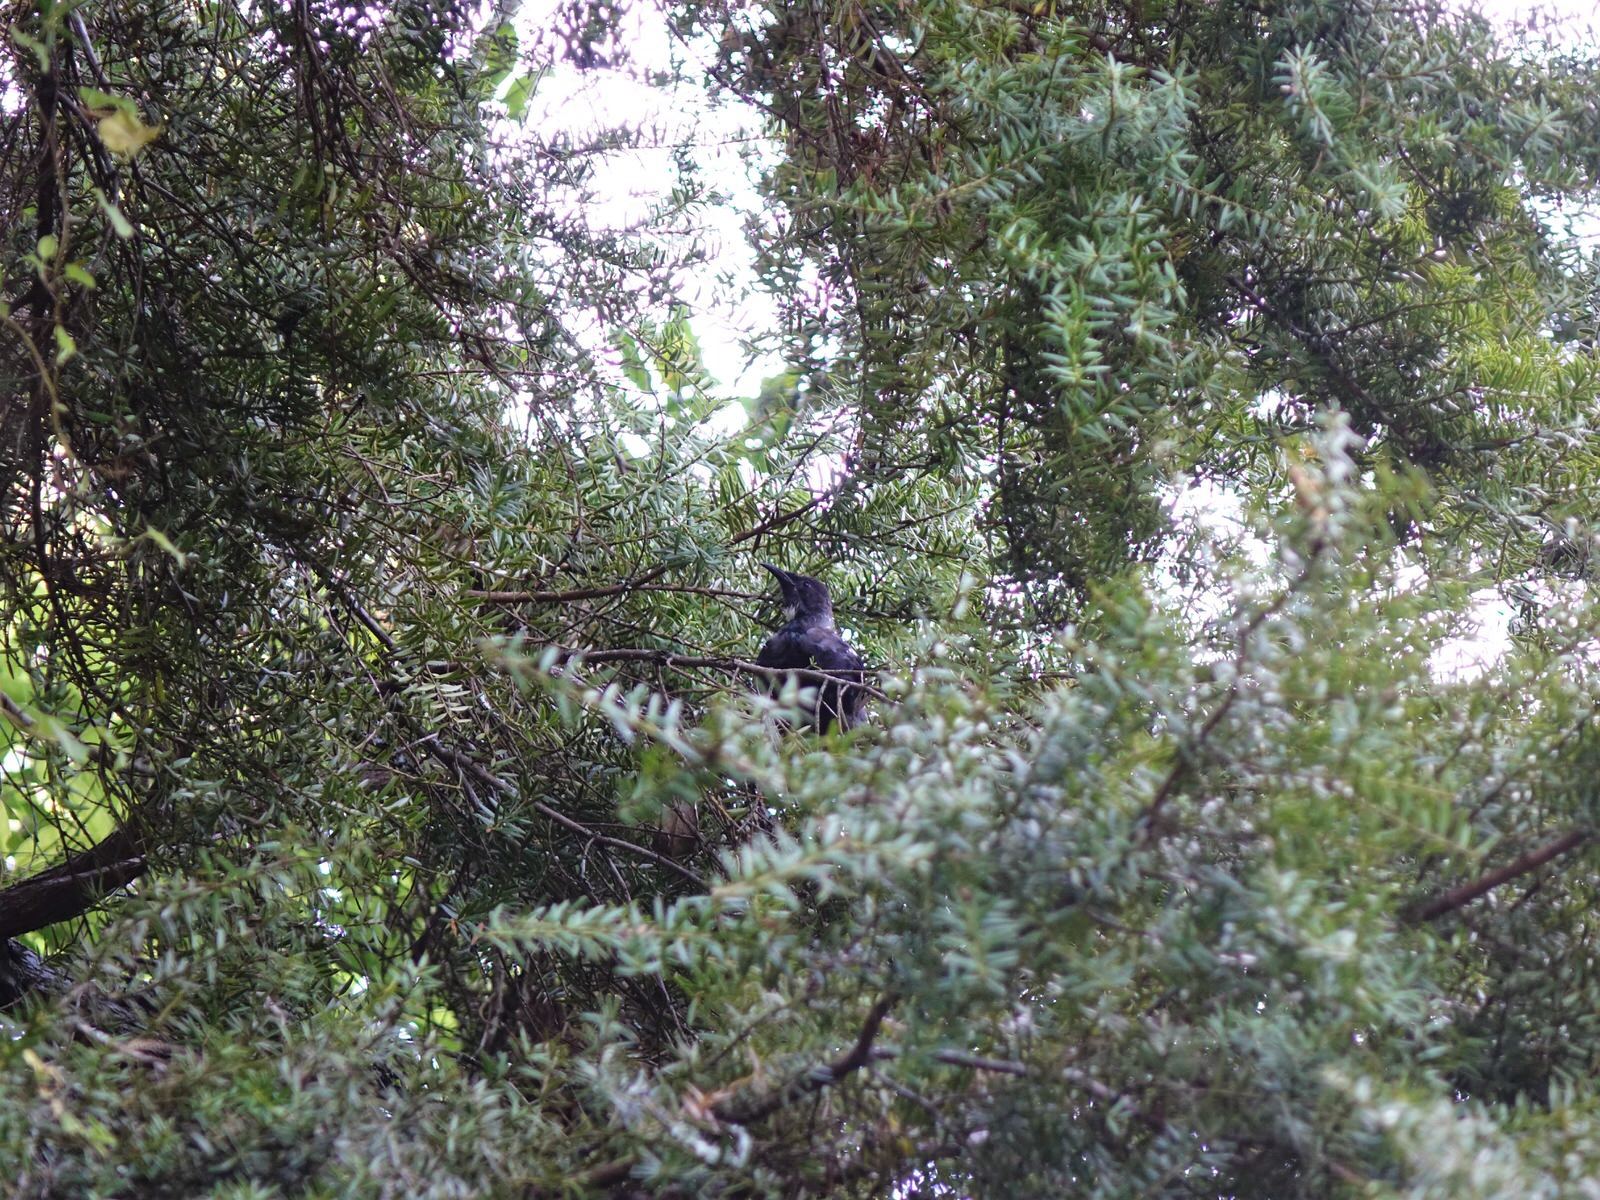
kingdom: Animalia
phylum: Chordata
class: Aves
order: Passeriformes
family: Meliphagidae
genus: Prosthemadera
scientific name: Prosthemadera novaeseelandiae
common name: Tui
